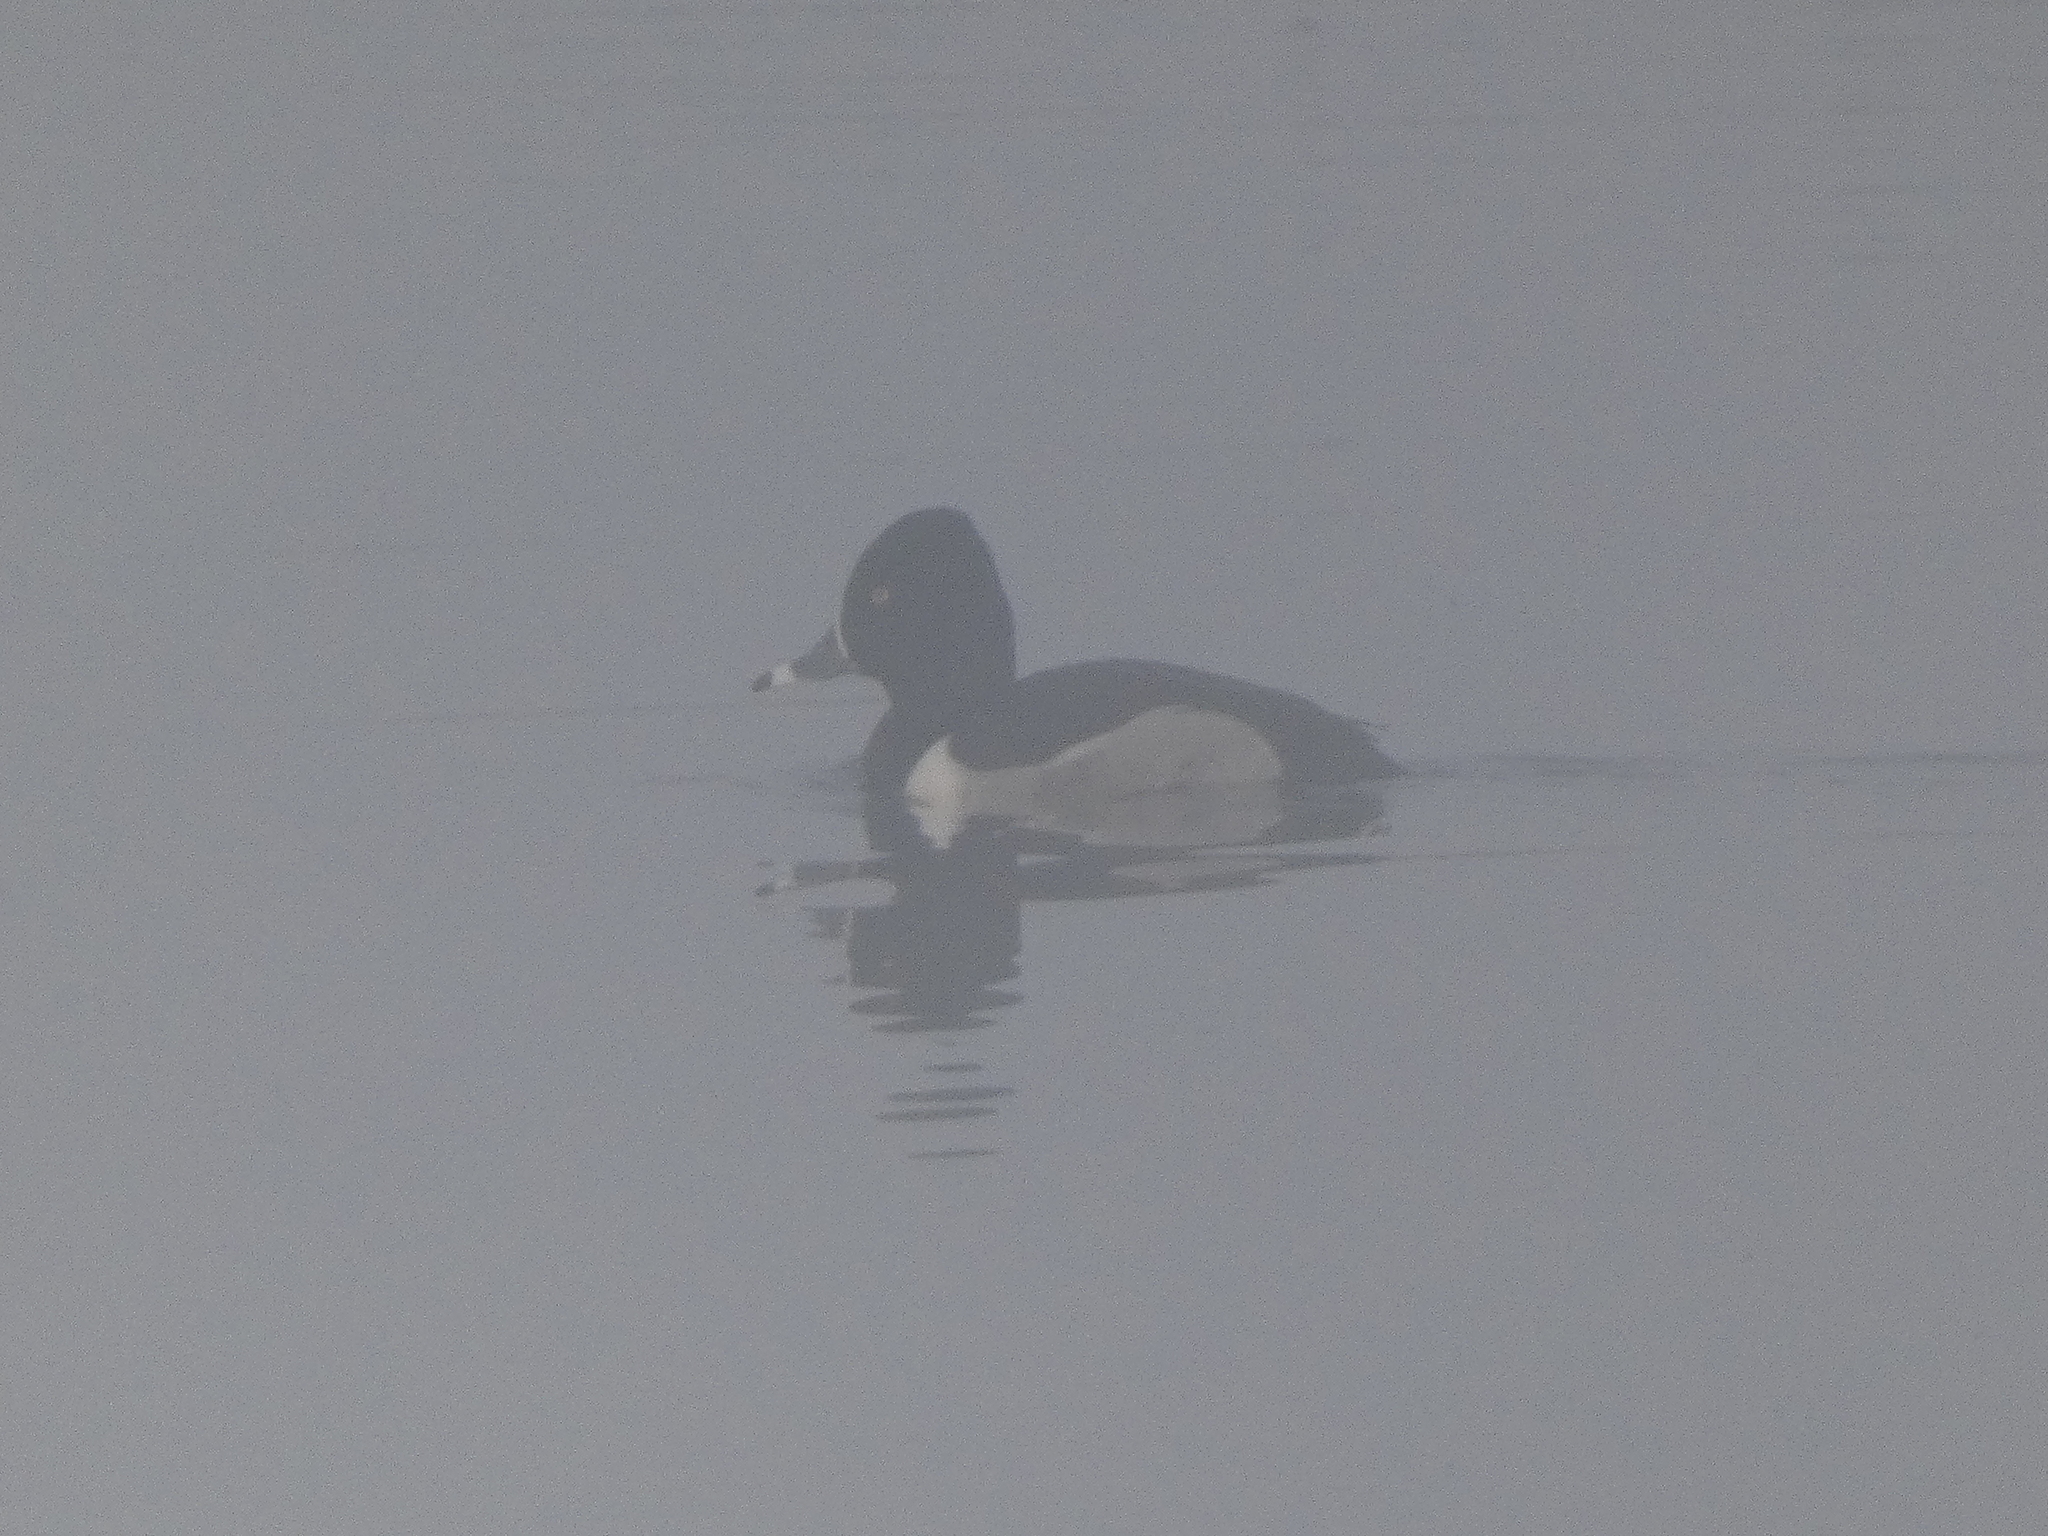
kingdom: Animalia
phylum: Chordata
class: Aves
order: Anseriformes
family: Anatidae
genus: Aythya
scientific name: Aythya collaris
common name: Ring-necked duck
